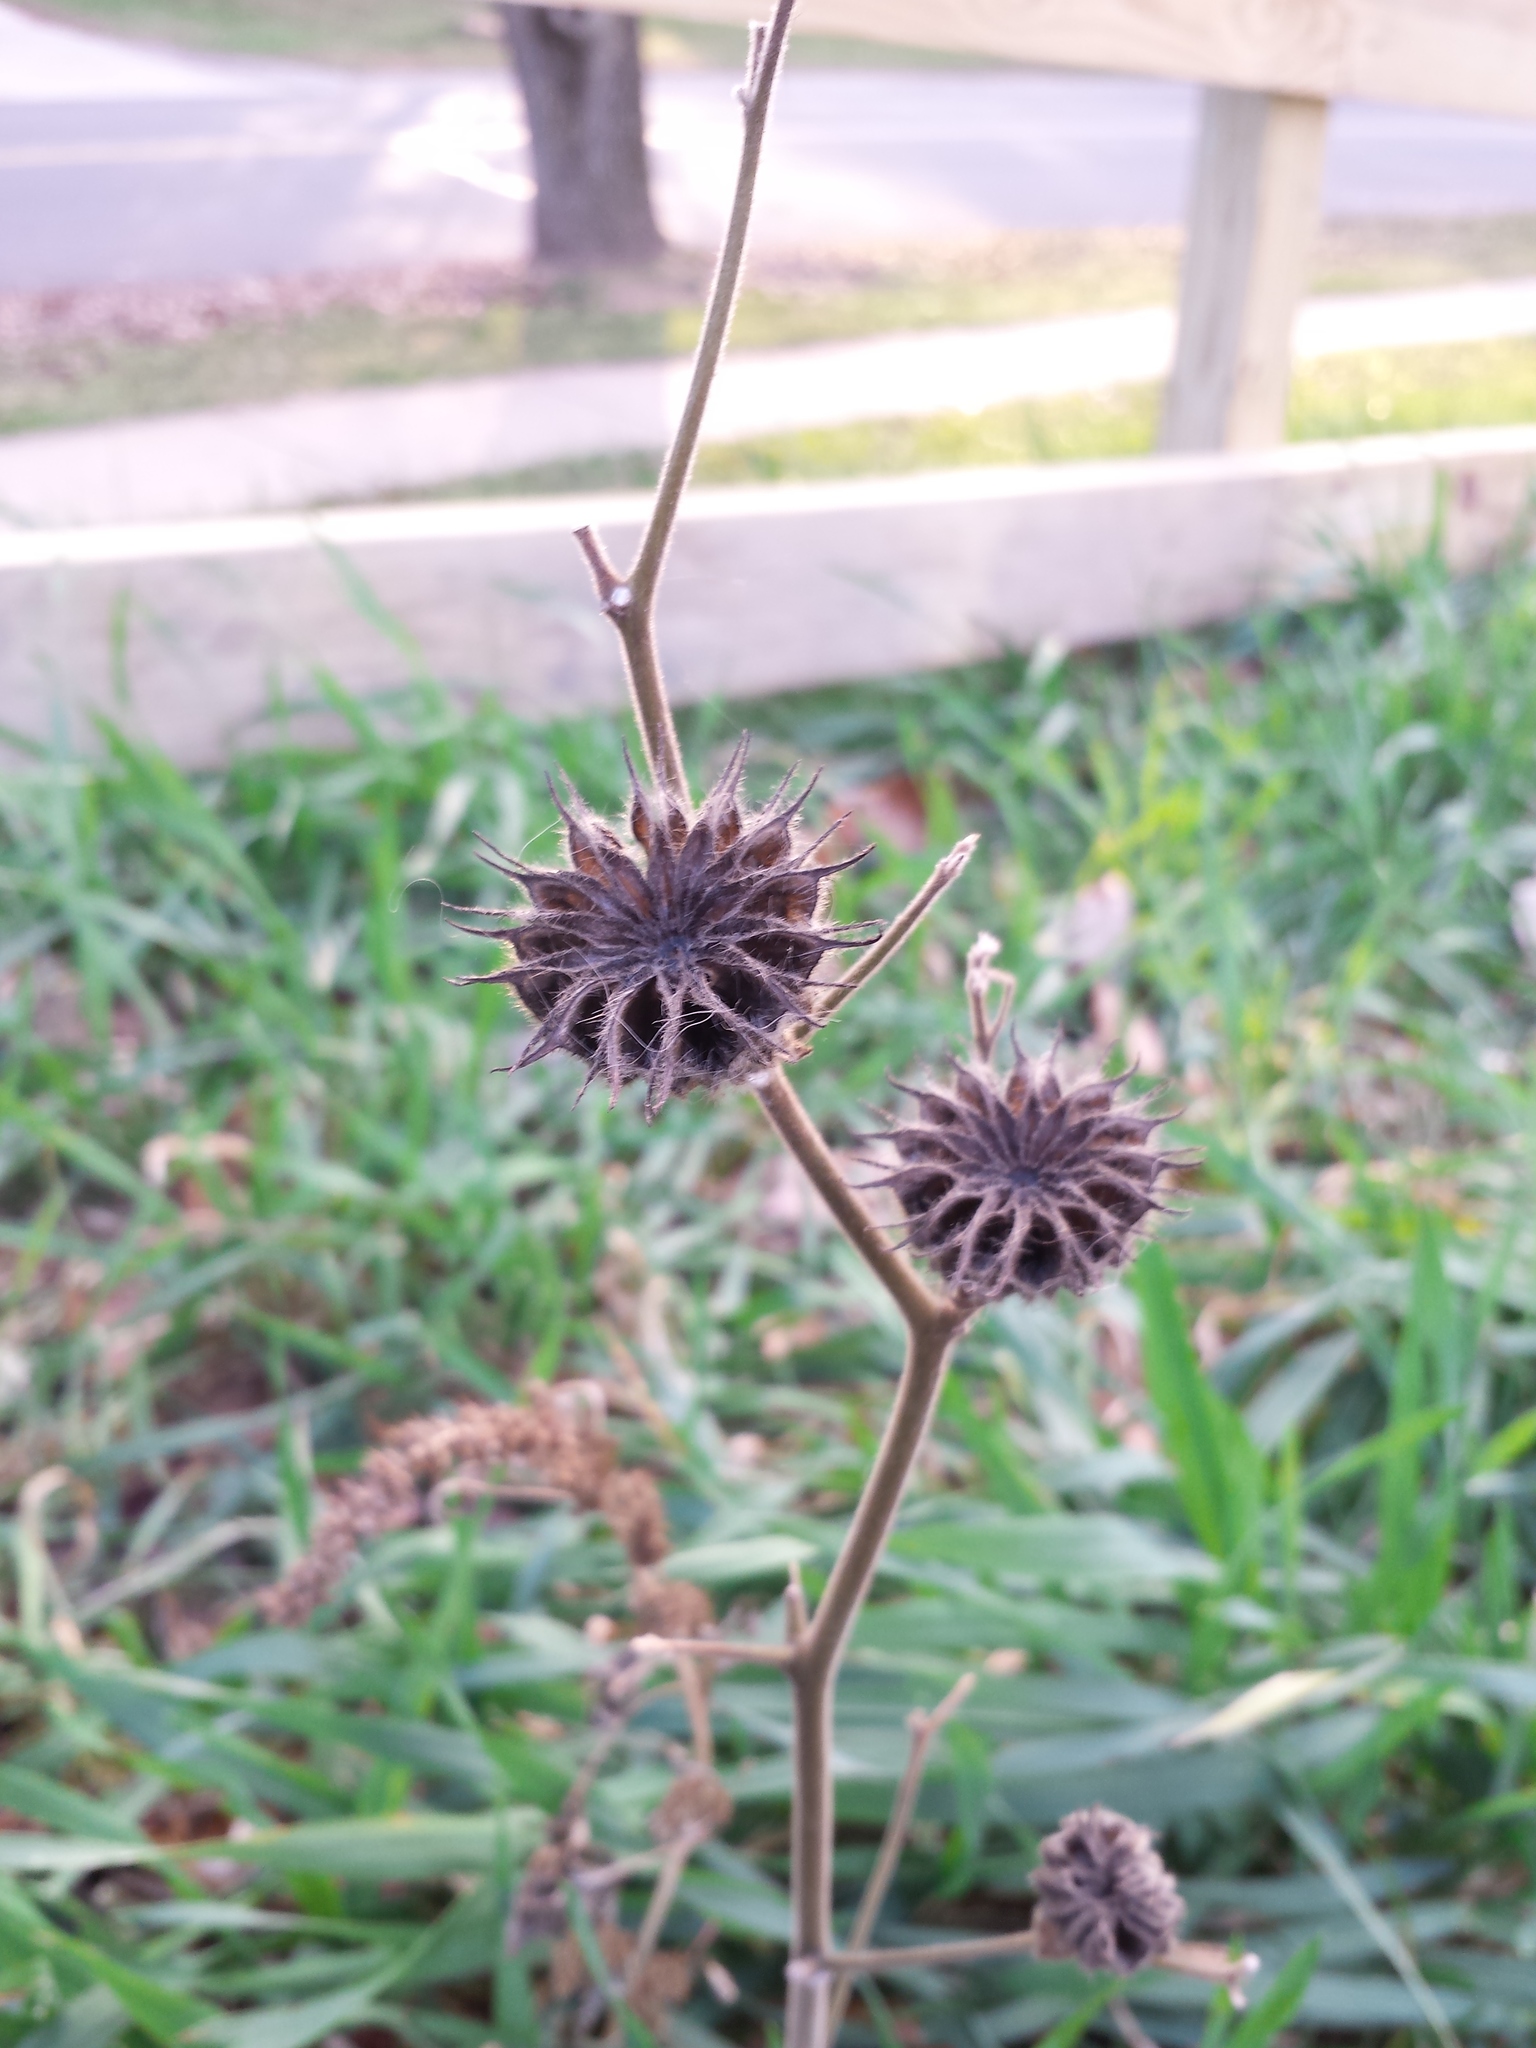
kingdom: Plantae
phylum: Tracheophyta
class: Magnoliopsida
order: Malvales
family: Malvaceae
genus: Abutilon
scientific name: Abutilon theophrasti
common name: Velvetleaf
